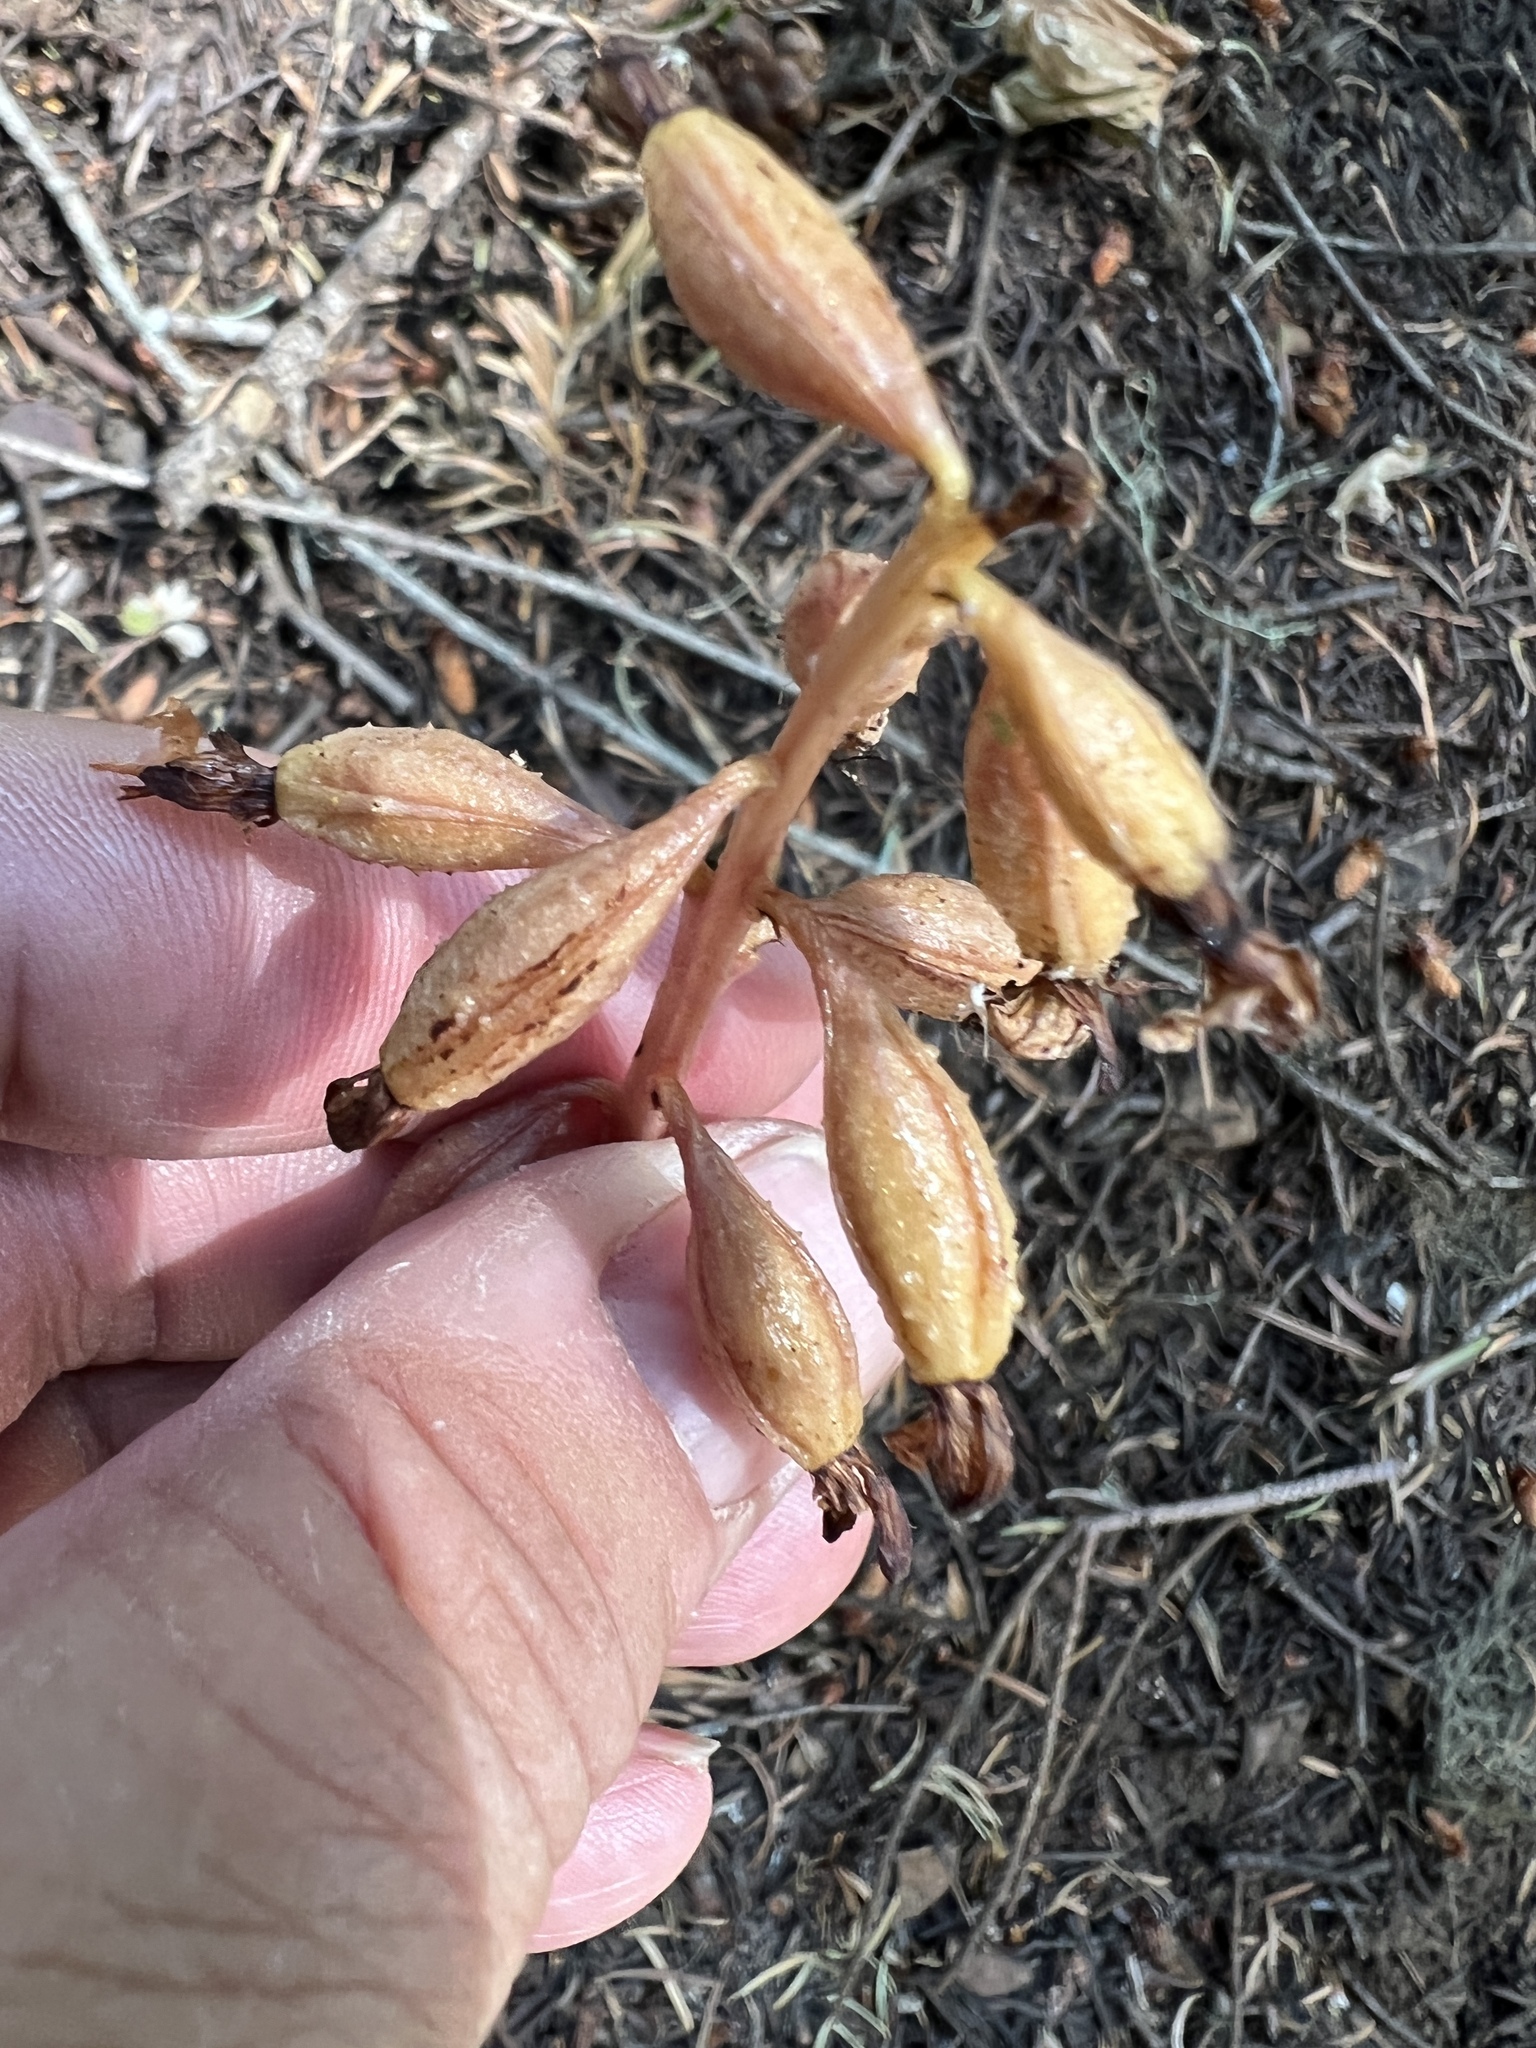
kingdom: Plantae
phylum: Tracheophyta
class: Liliopsida
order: Asparagales
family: Orchidaceae
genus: Corallorhiza
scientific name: Corallorhiza maculata
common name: Spotted coralroot
